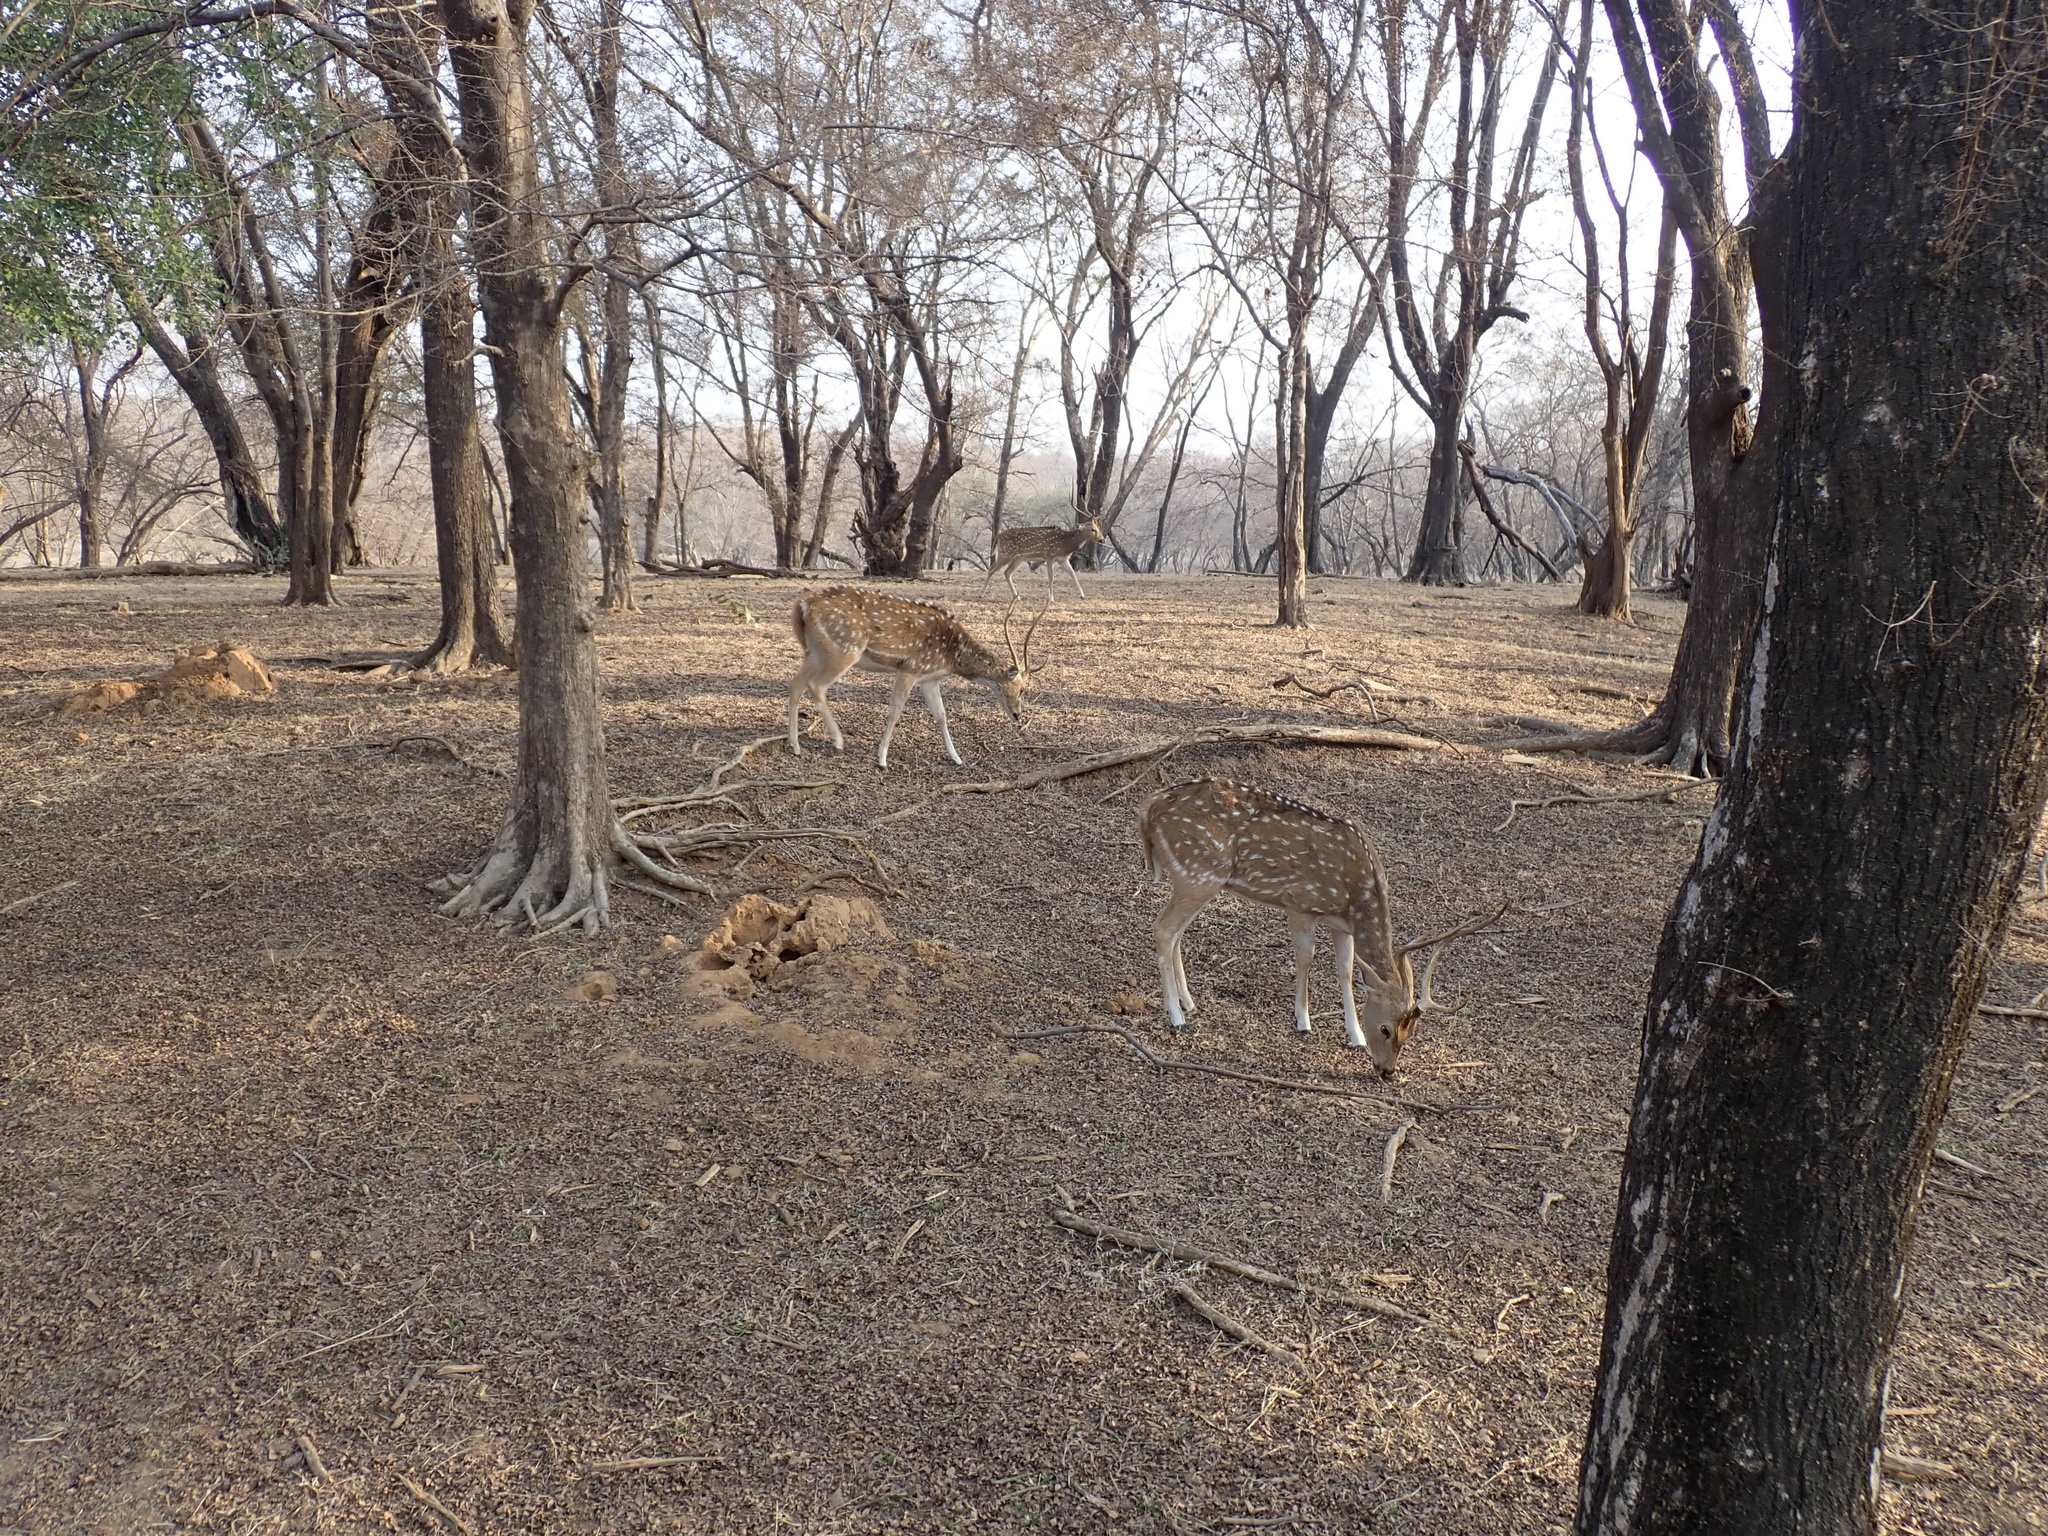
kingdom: Animalia
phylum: Chordata
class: Mammalia
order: Artiodactyla
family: Cervidae
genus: Axis
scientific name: Axis axis
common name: Chital
